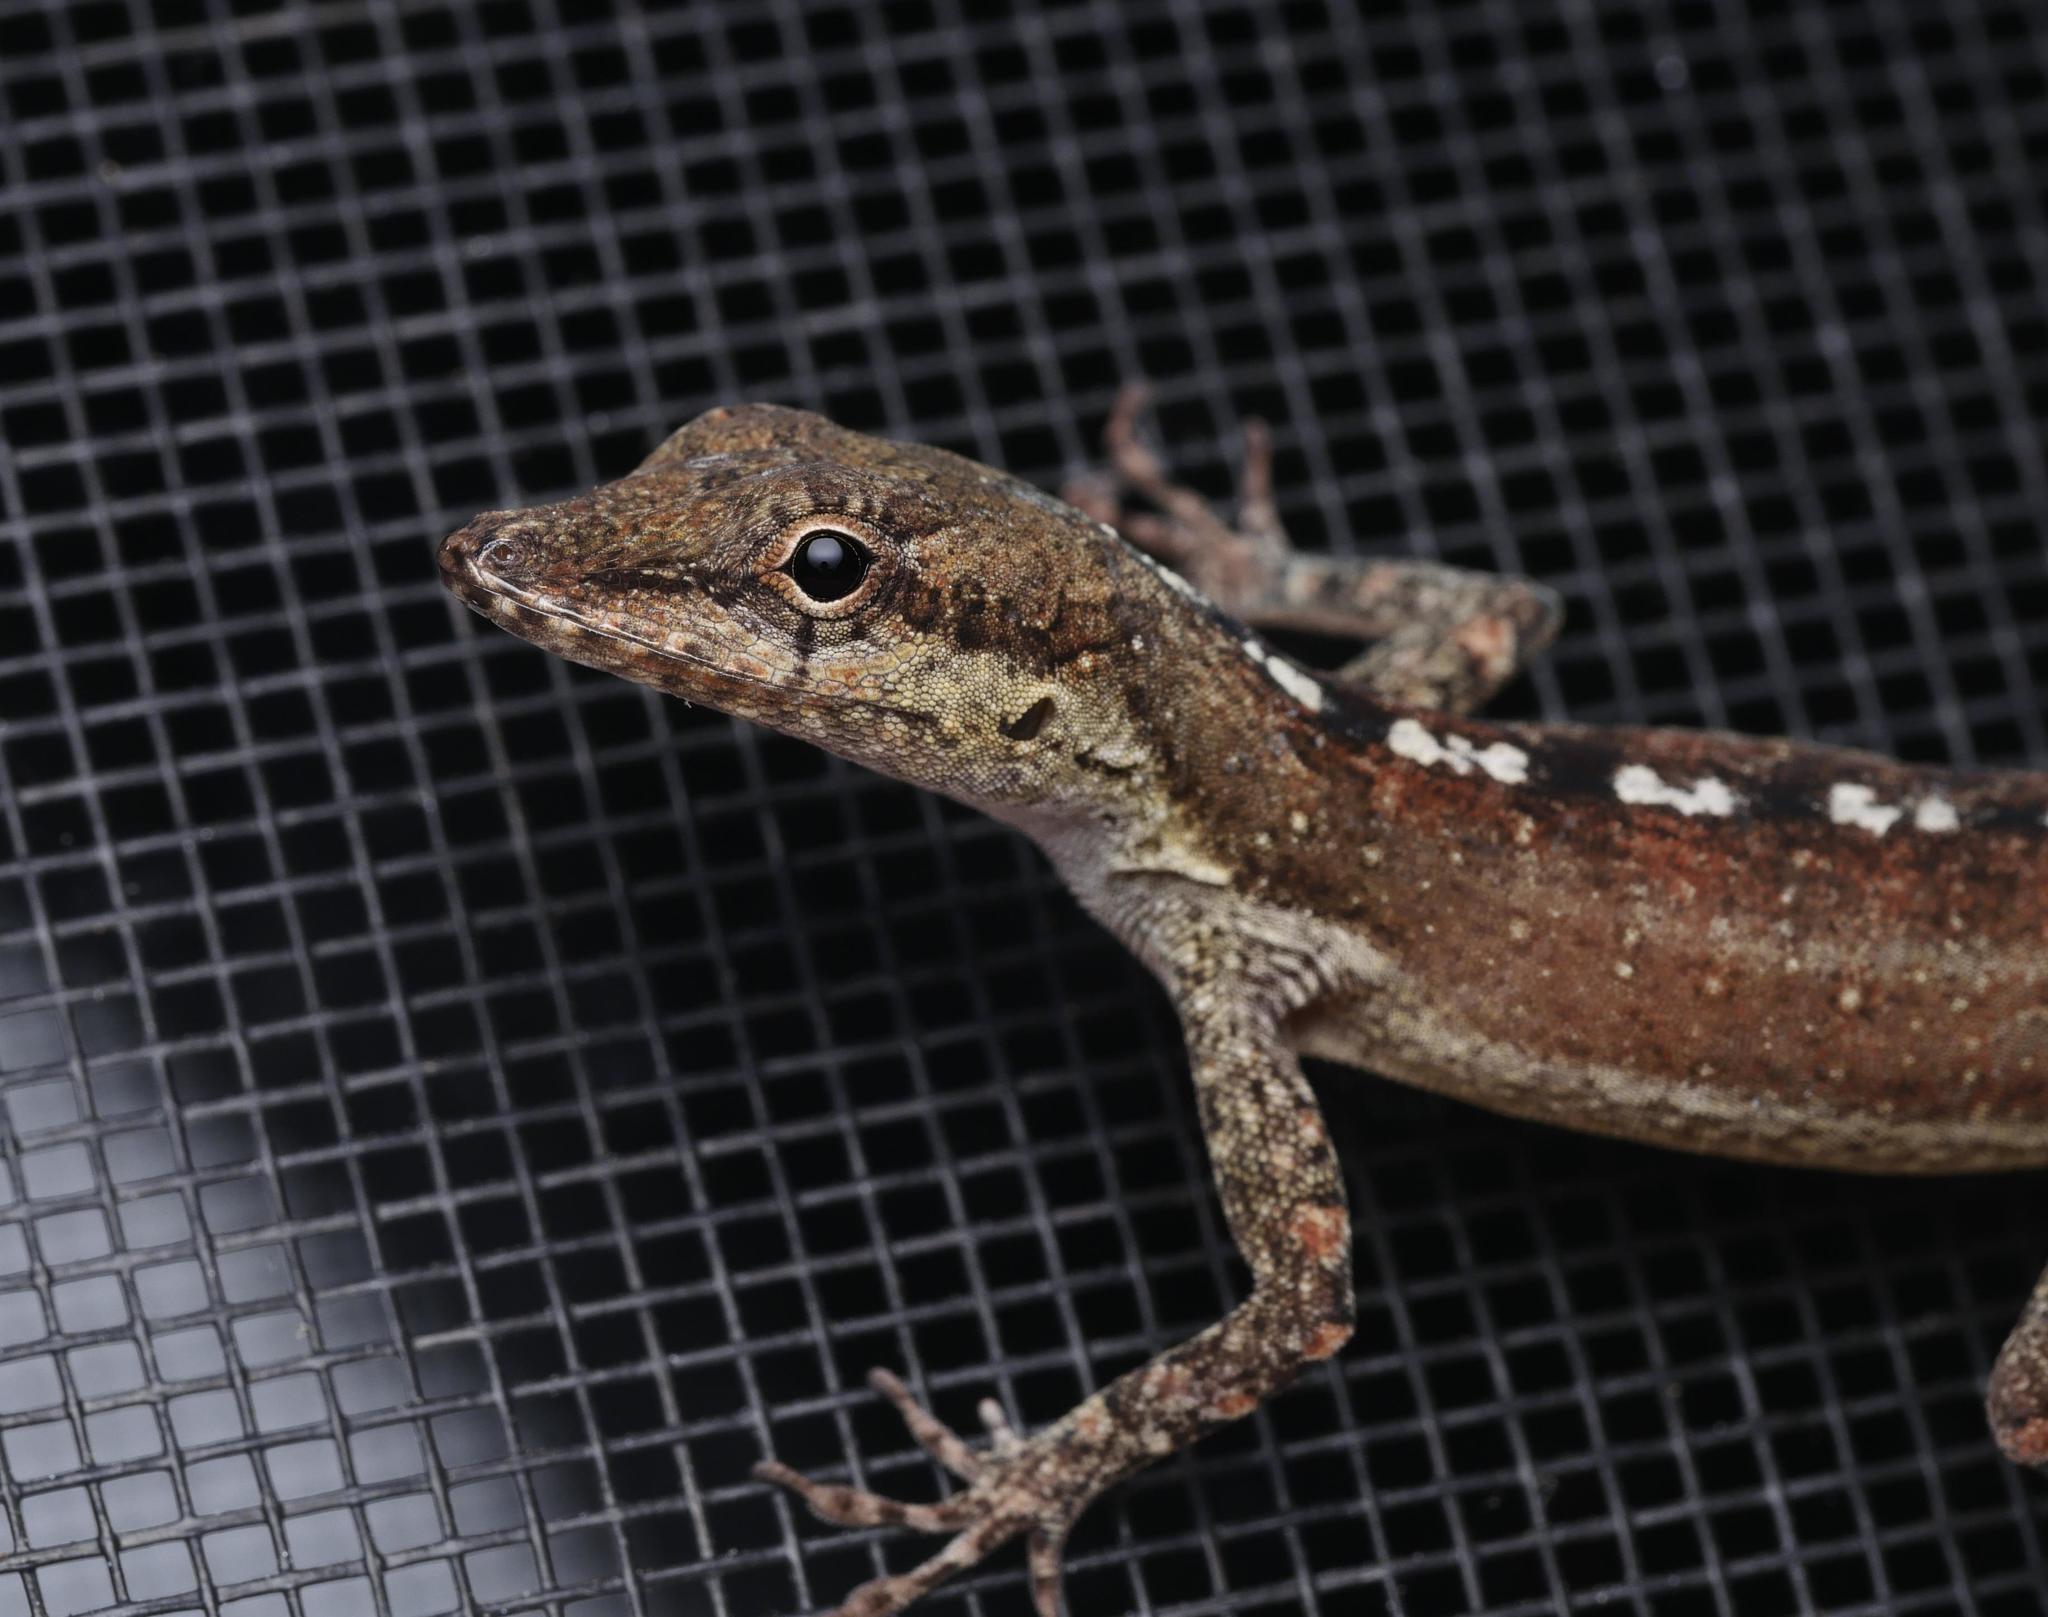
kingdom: Animalia
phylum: Chordata
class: Squamata
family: Dactyloidae
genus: Anolis
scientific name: Anolis scriptus
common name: Silver key anole
